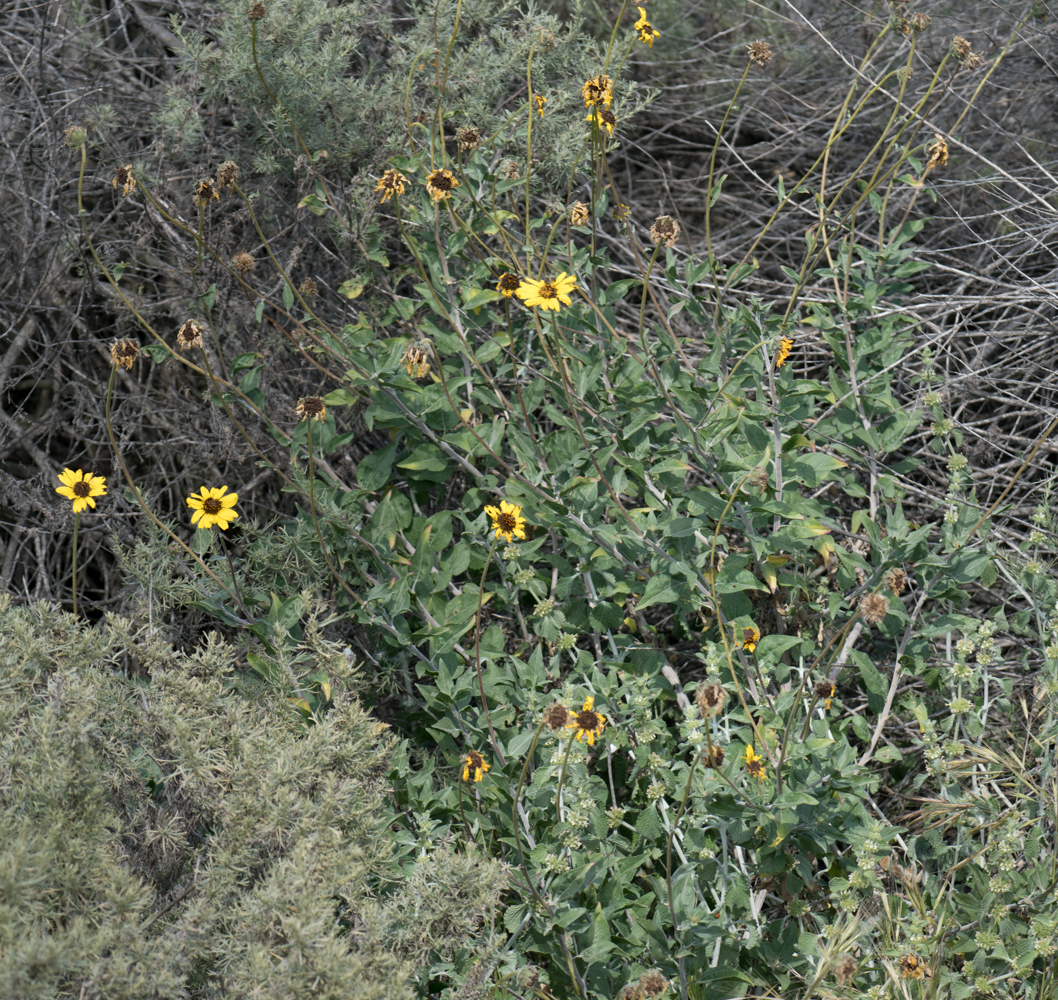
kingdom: Plantae
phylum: Tracheophyta
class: Magnoliopsida
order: Asterales
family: Asteraceae
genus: Encelia
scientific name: Encelia californica
